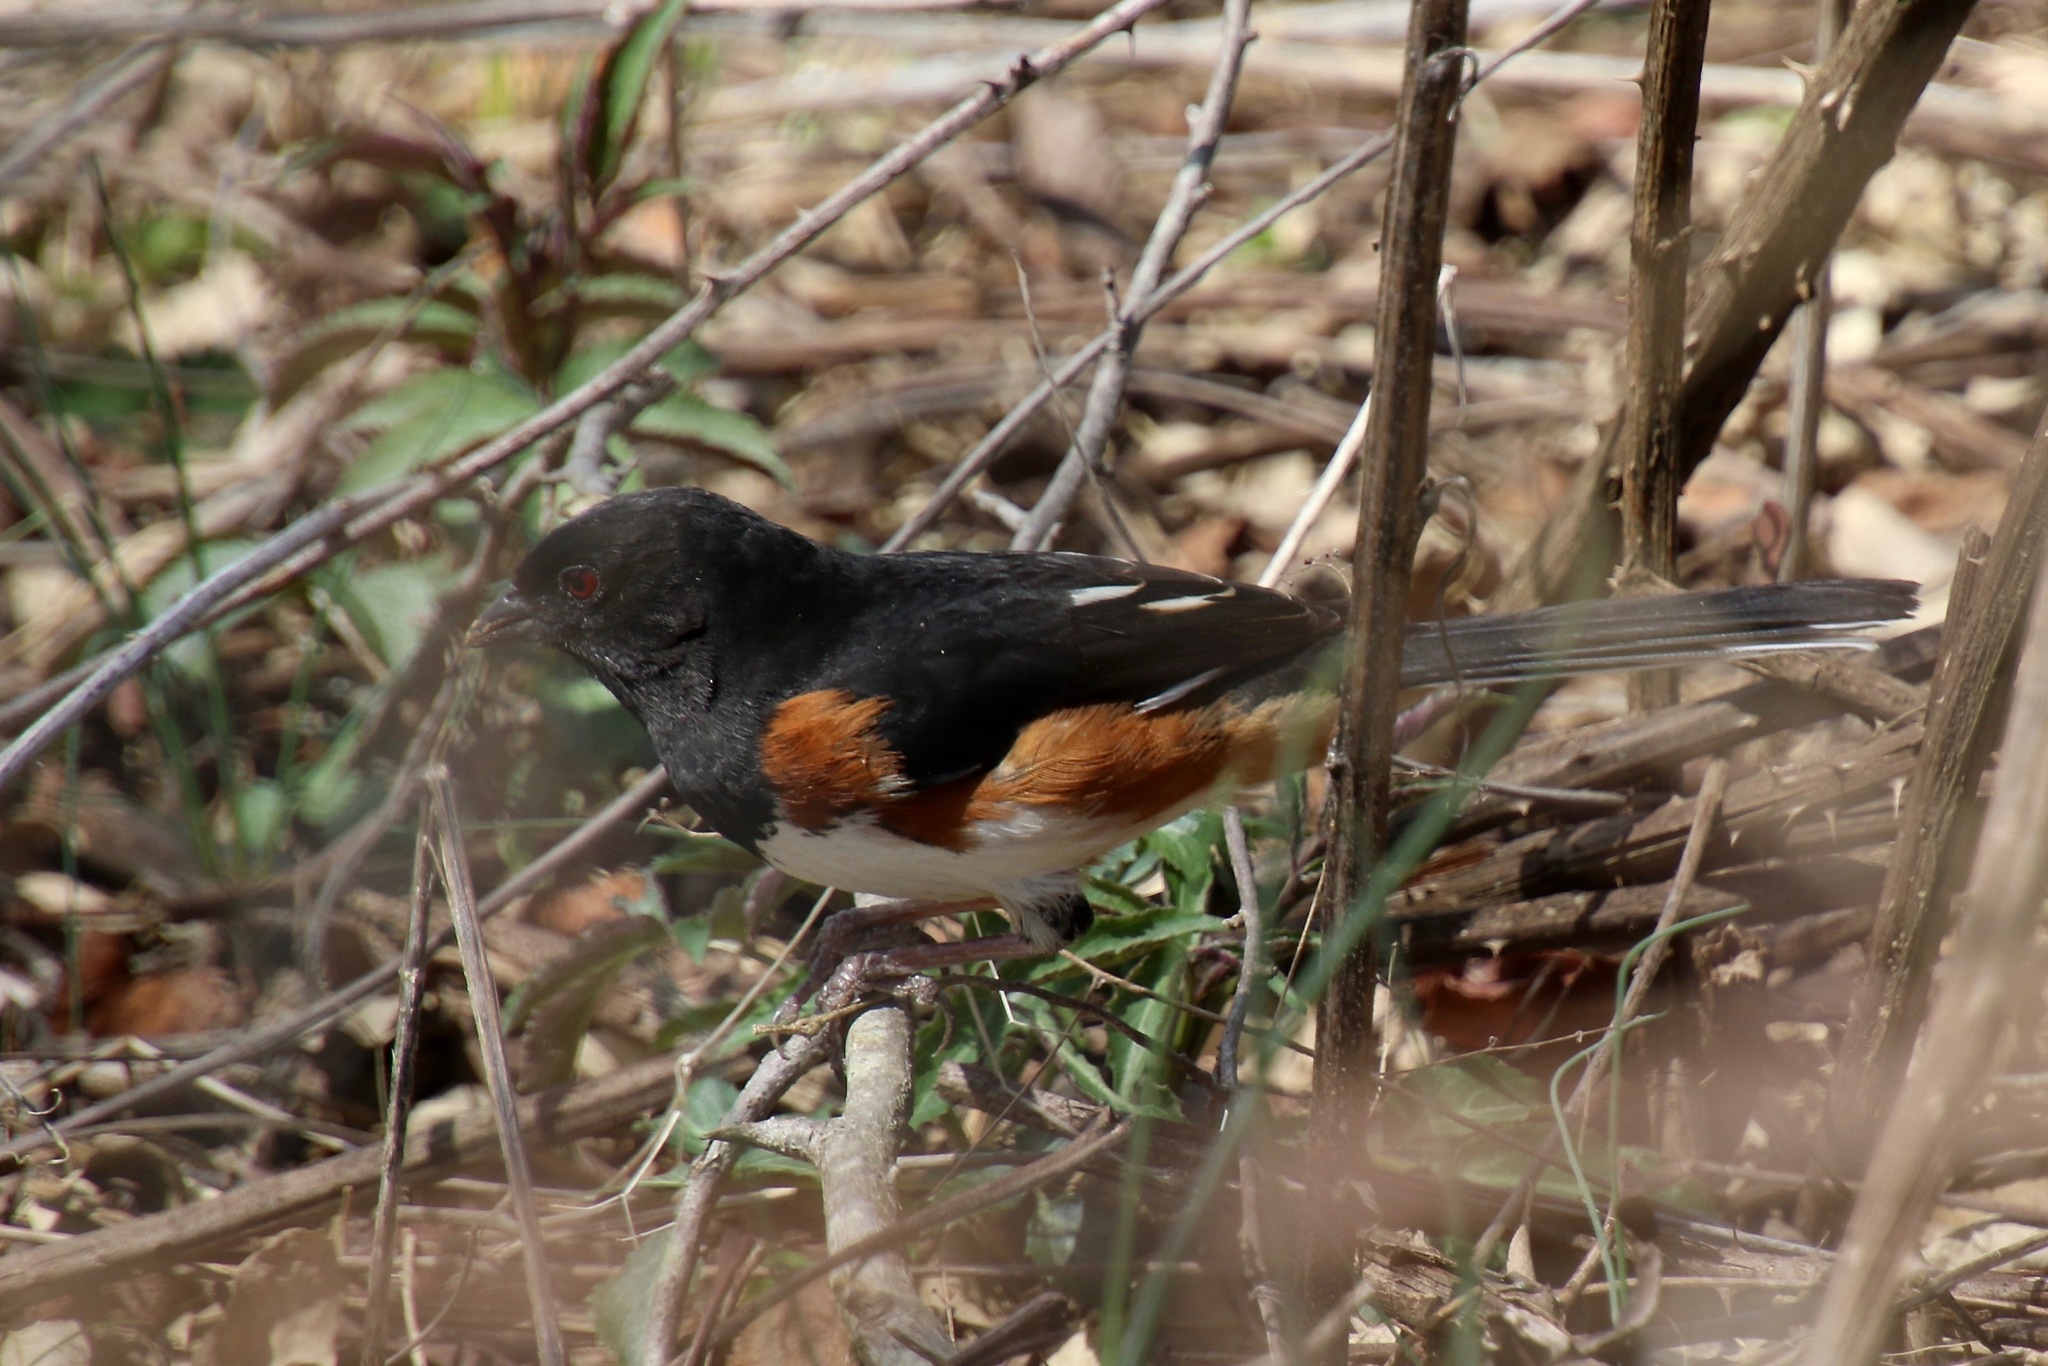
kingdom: Animalia
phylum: Chordata
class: Aves
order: Passeriformes
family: Passerellidae
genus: Pipilo
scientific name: Pipilo erythrophthalmus
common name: Eastern towhee
